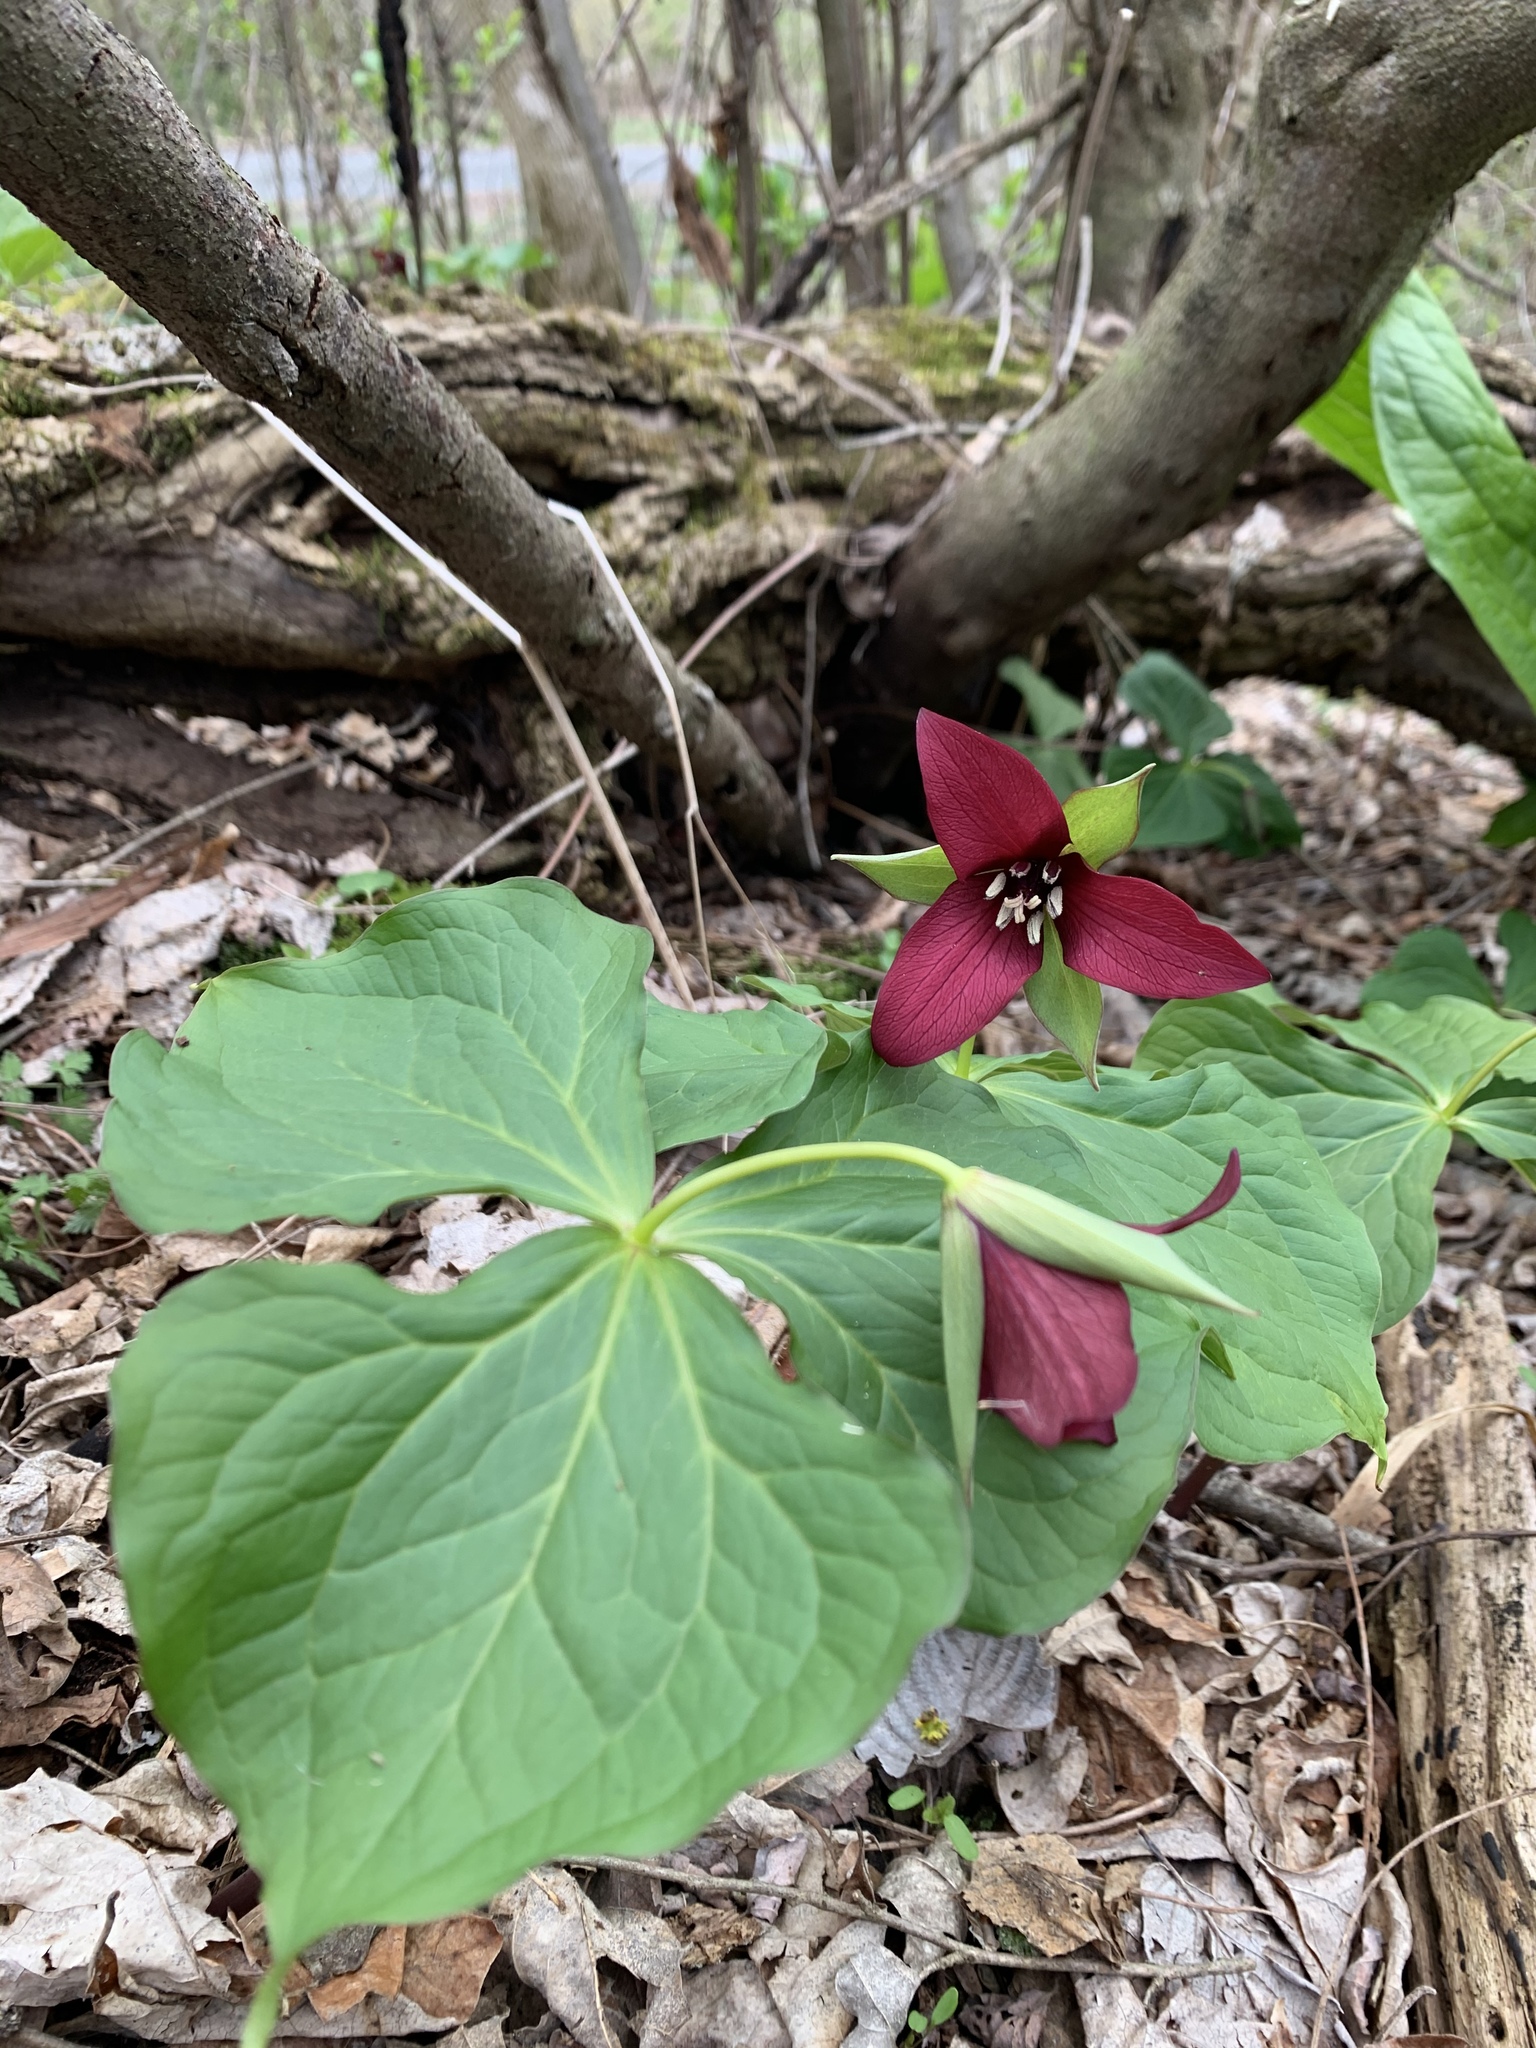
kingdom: Plantae
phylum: Tracheophyta
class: Liliopsida
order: Liliales
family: Melanthiaceae
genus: Trillium
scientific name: Trillium erectum
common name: Purple trillium
